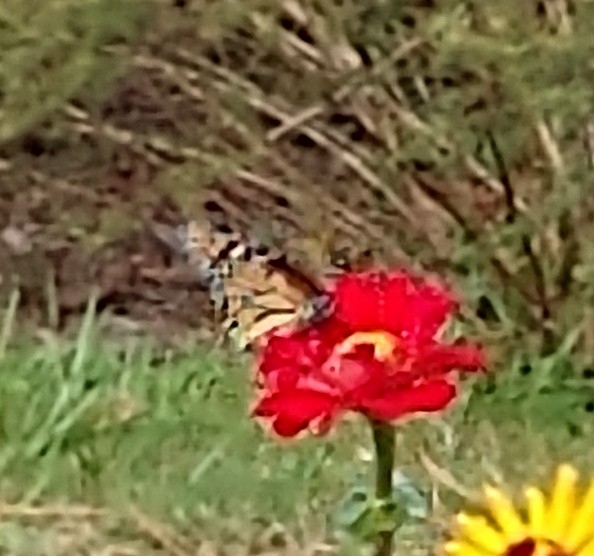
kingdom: Animalia
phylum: Arthropoda
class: Insecta
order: Lepidoptera
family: Nymphalidae
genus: Danaus
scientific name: Danaus plexippus
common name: Monarch
